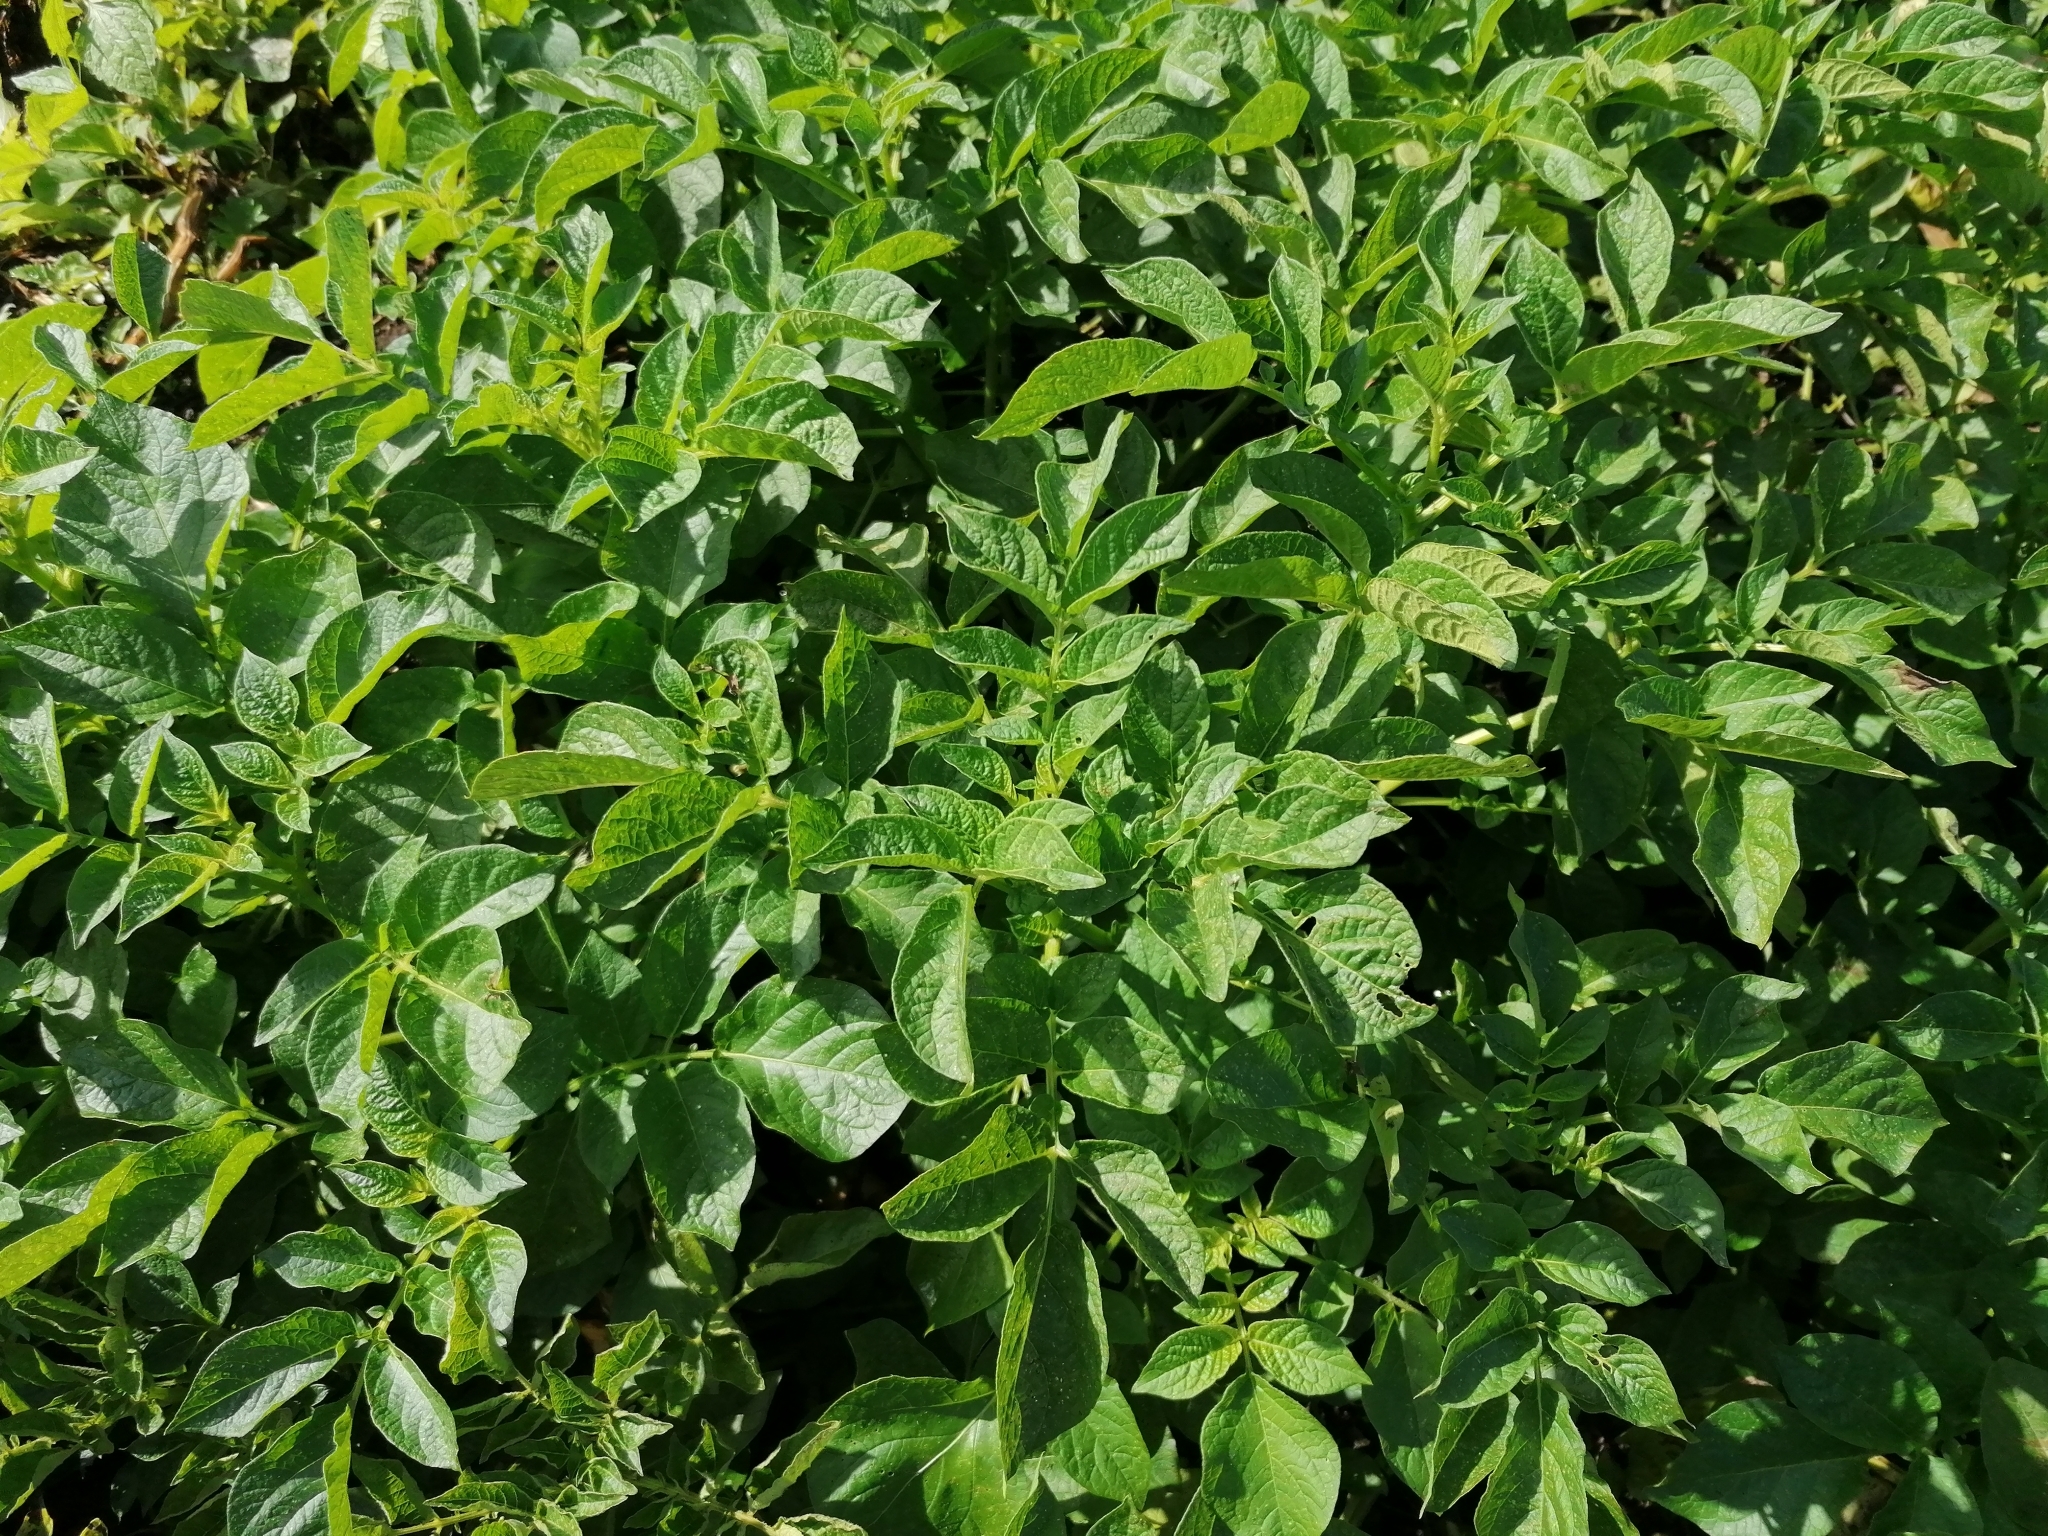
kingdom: Plantae
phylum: Tracheophyta
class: Magnoliopsida
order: Solanales
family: Solanaceae
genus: Solanum
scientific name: Solanum tuberosum
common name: Potato
